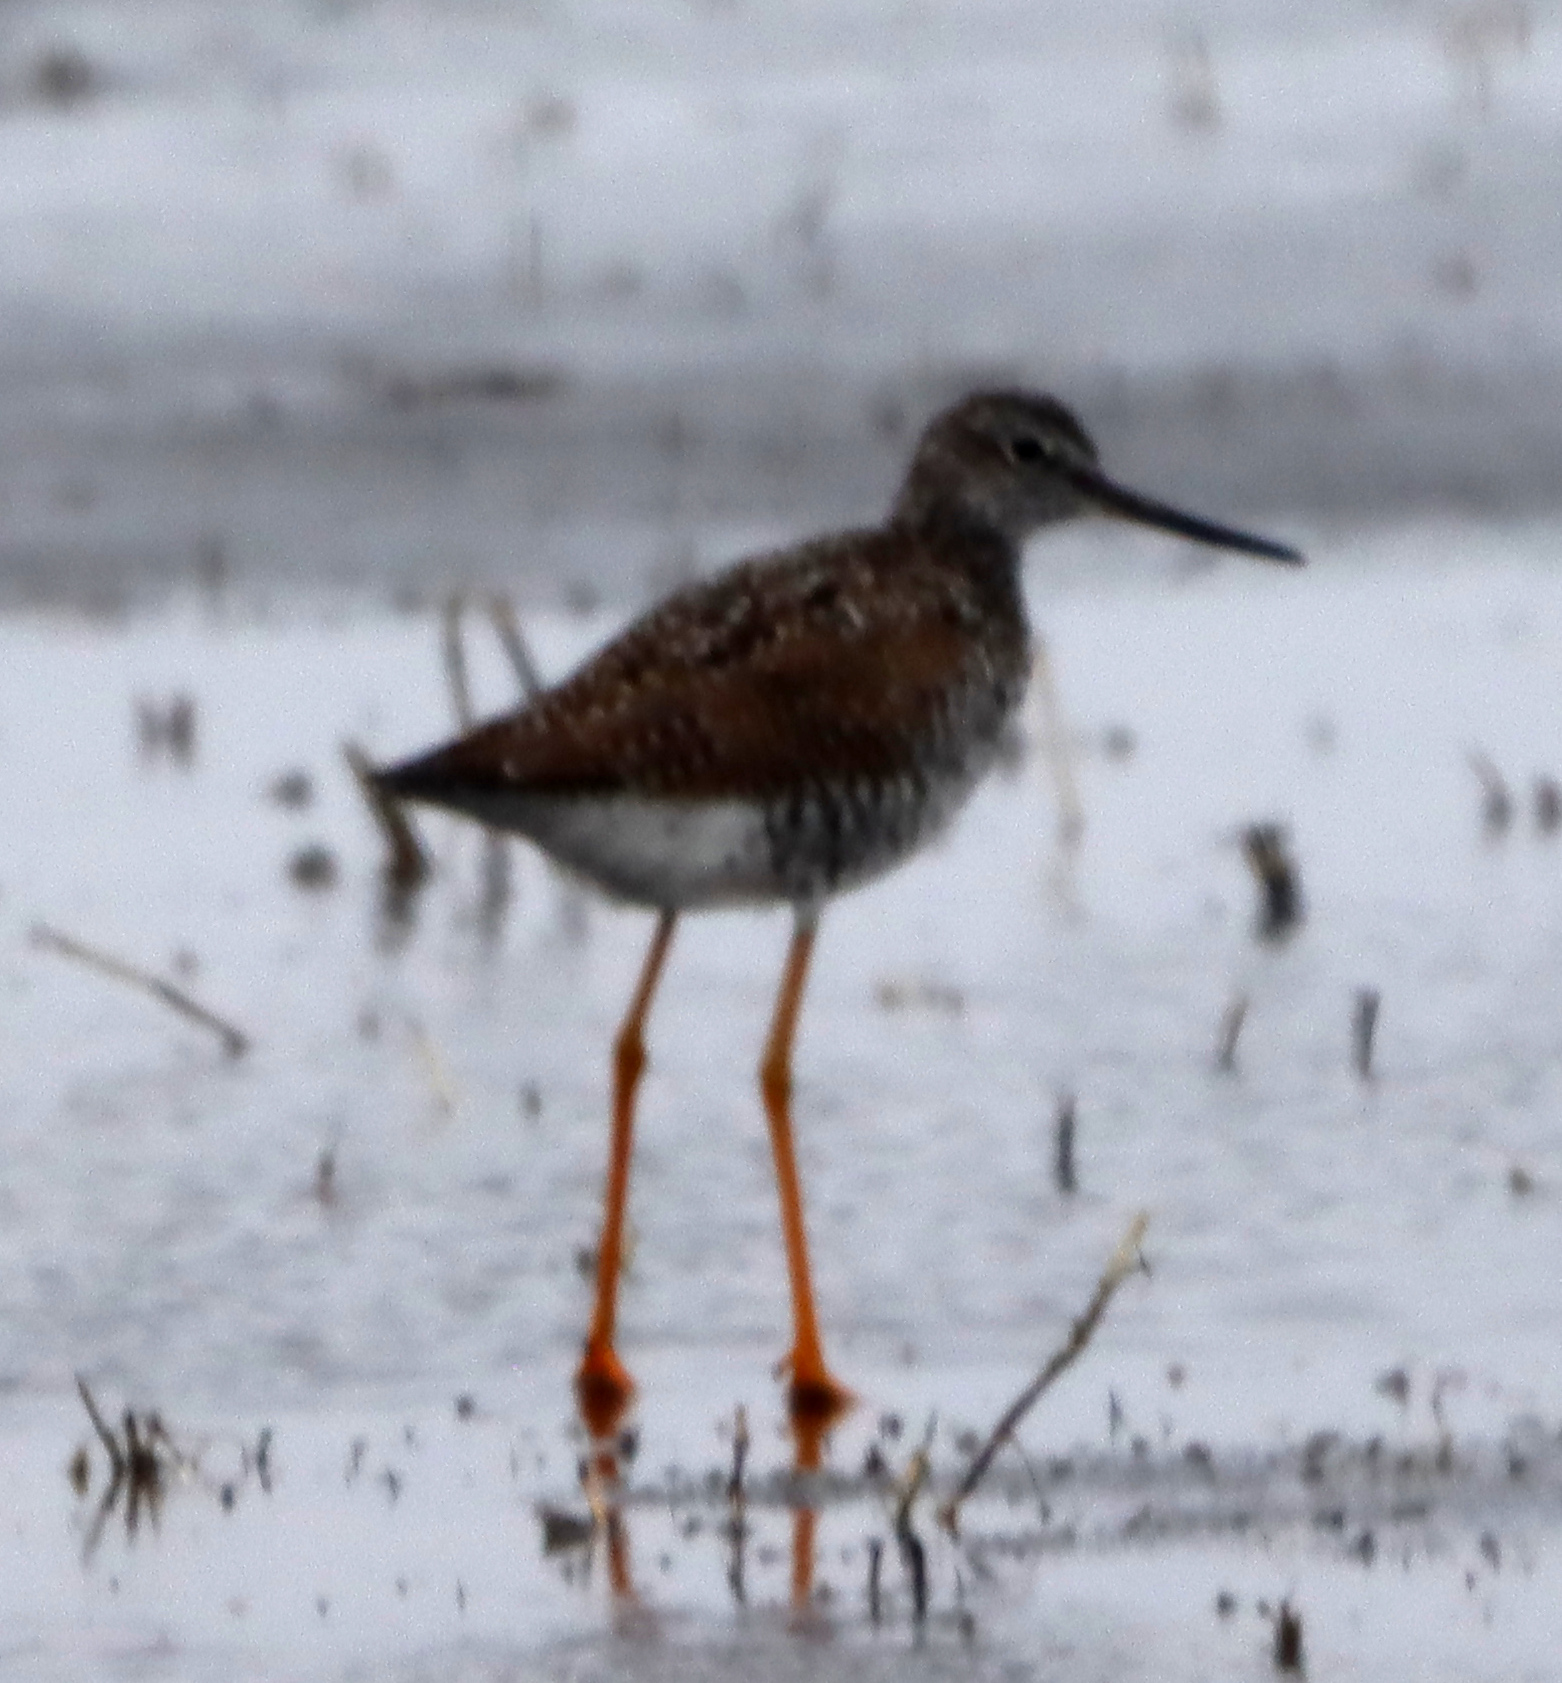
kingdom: Animalia
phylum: Chordata
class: Aves
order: Charadriiformes
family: Scolopacidae
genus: Tringa
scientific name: Tringa melanoleuca
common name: Greater yellowlegs
